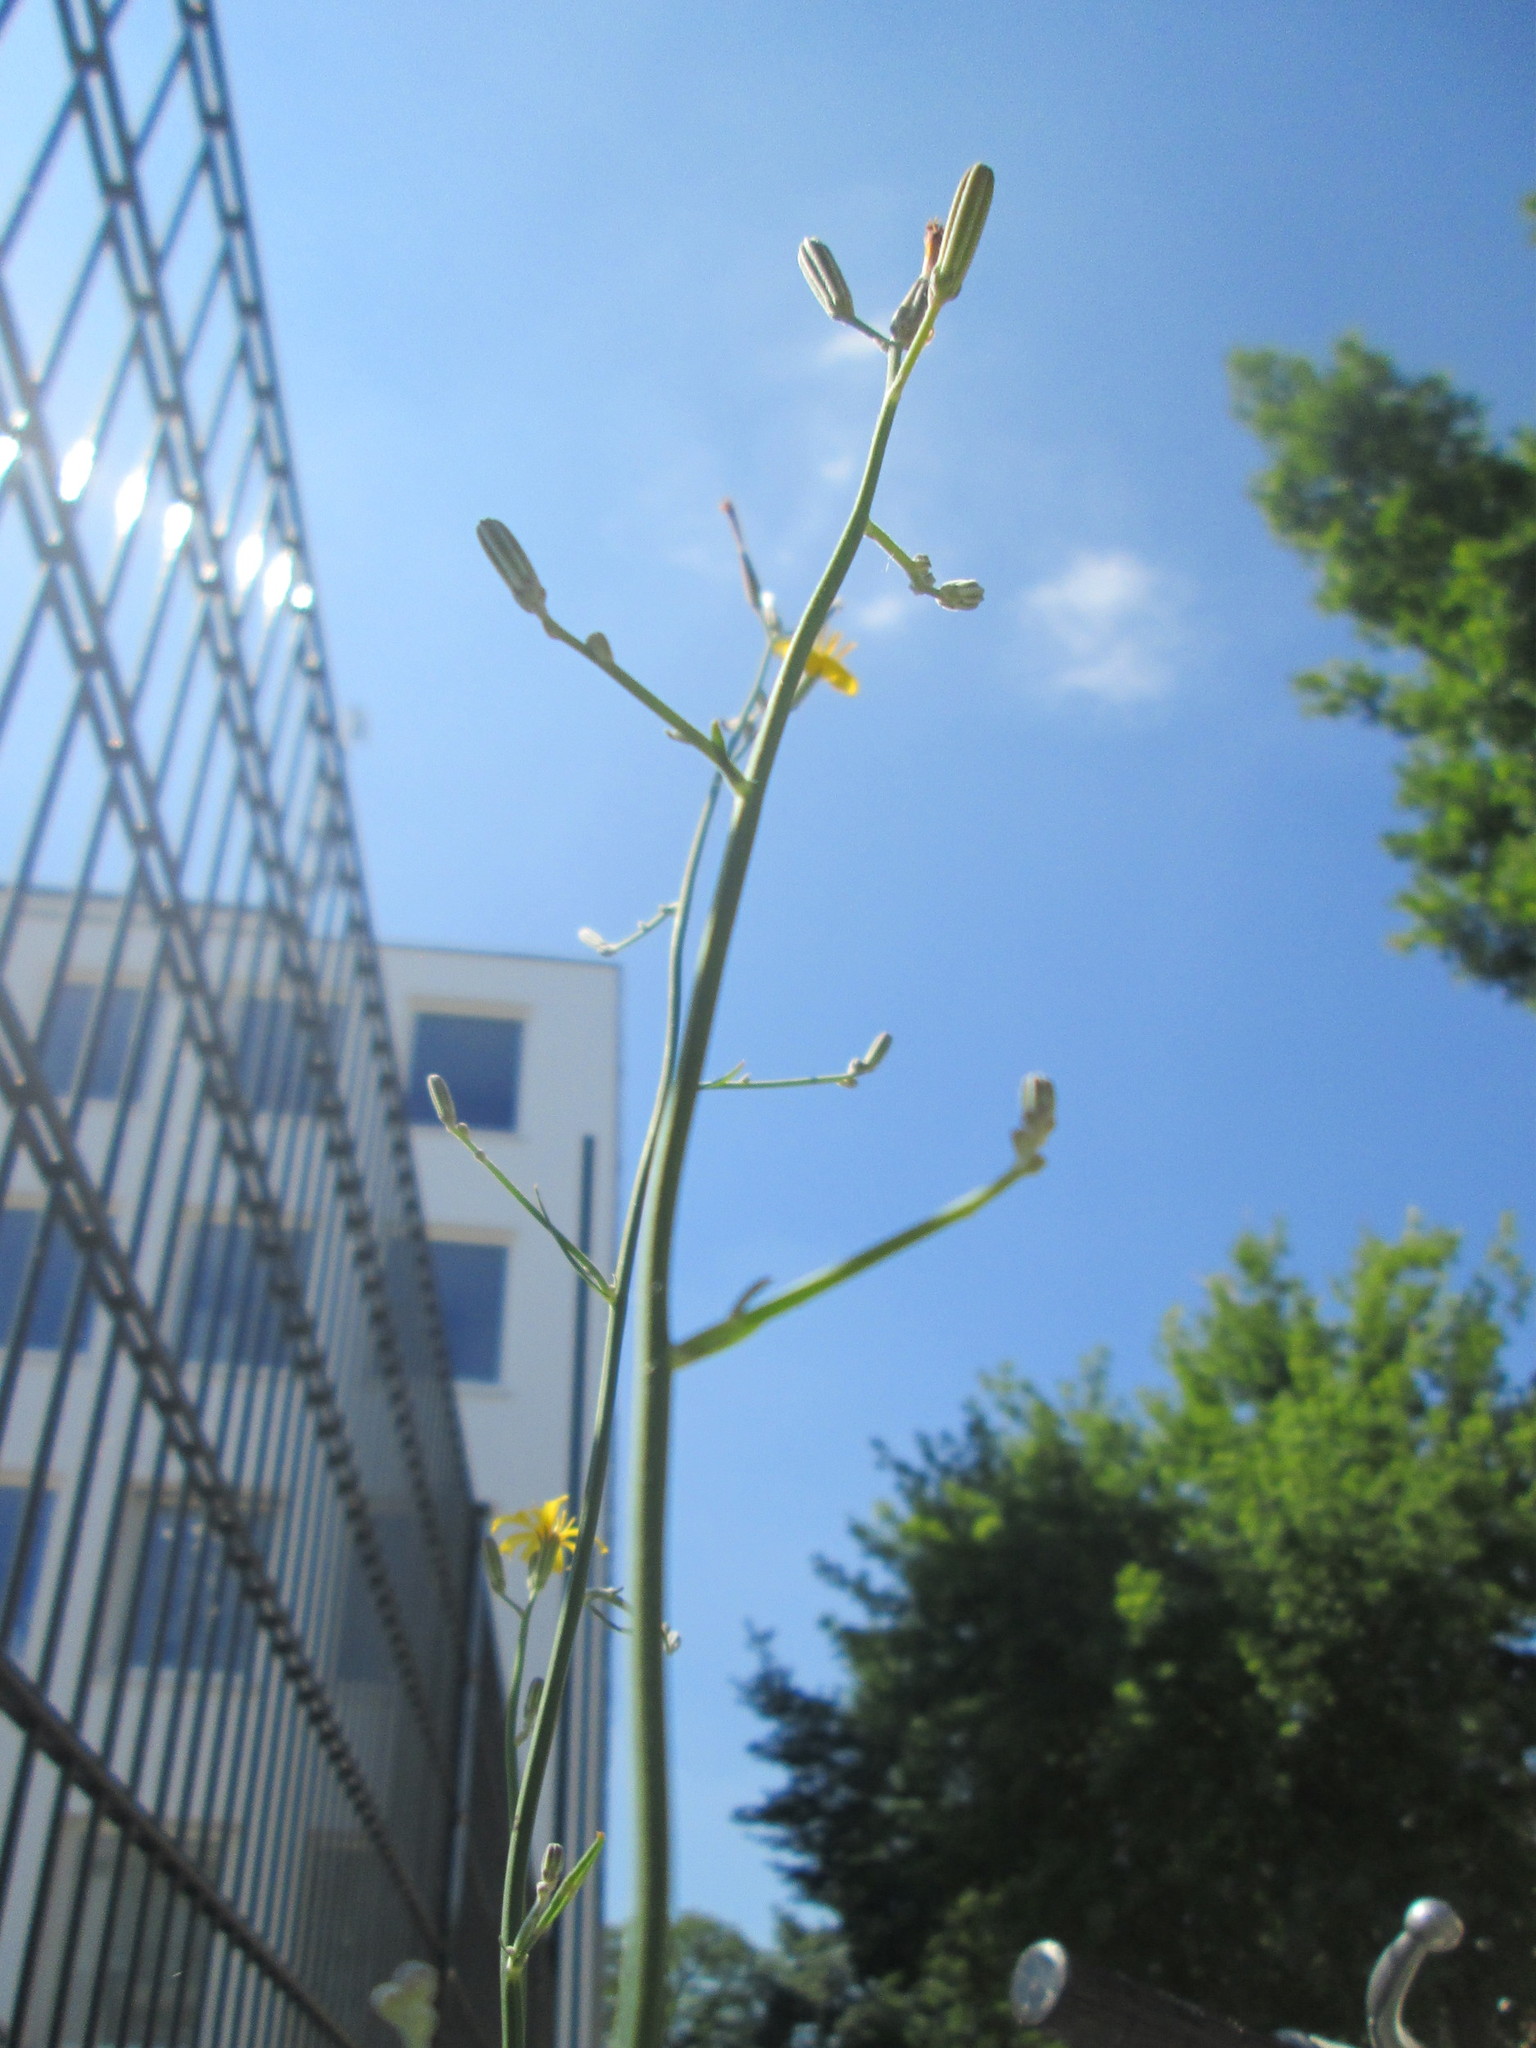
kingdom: Plantae
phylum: Tracheophyta
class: Magnoliopsida
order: Asterales
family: Asteraceae
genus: Chondrilla
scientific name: Chondrilla juncea
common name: Skeleton weed
